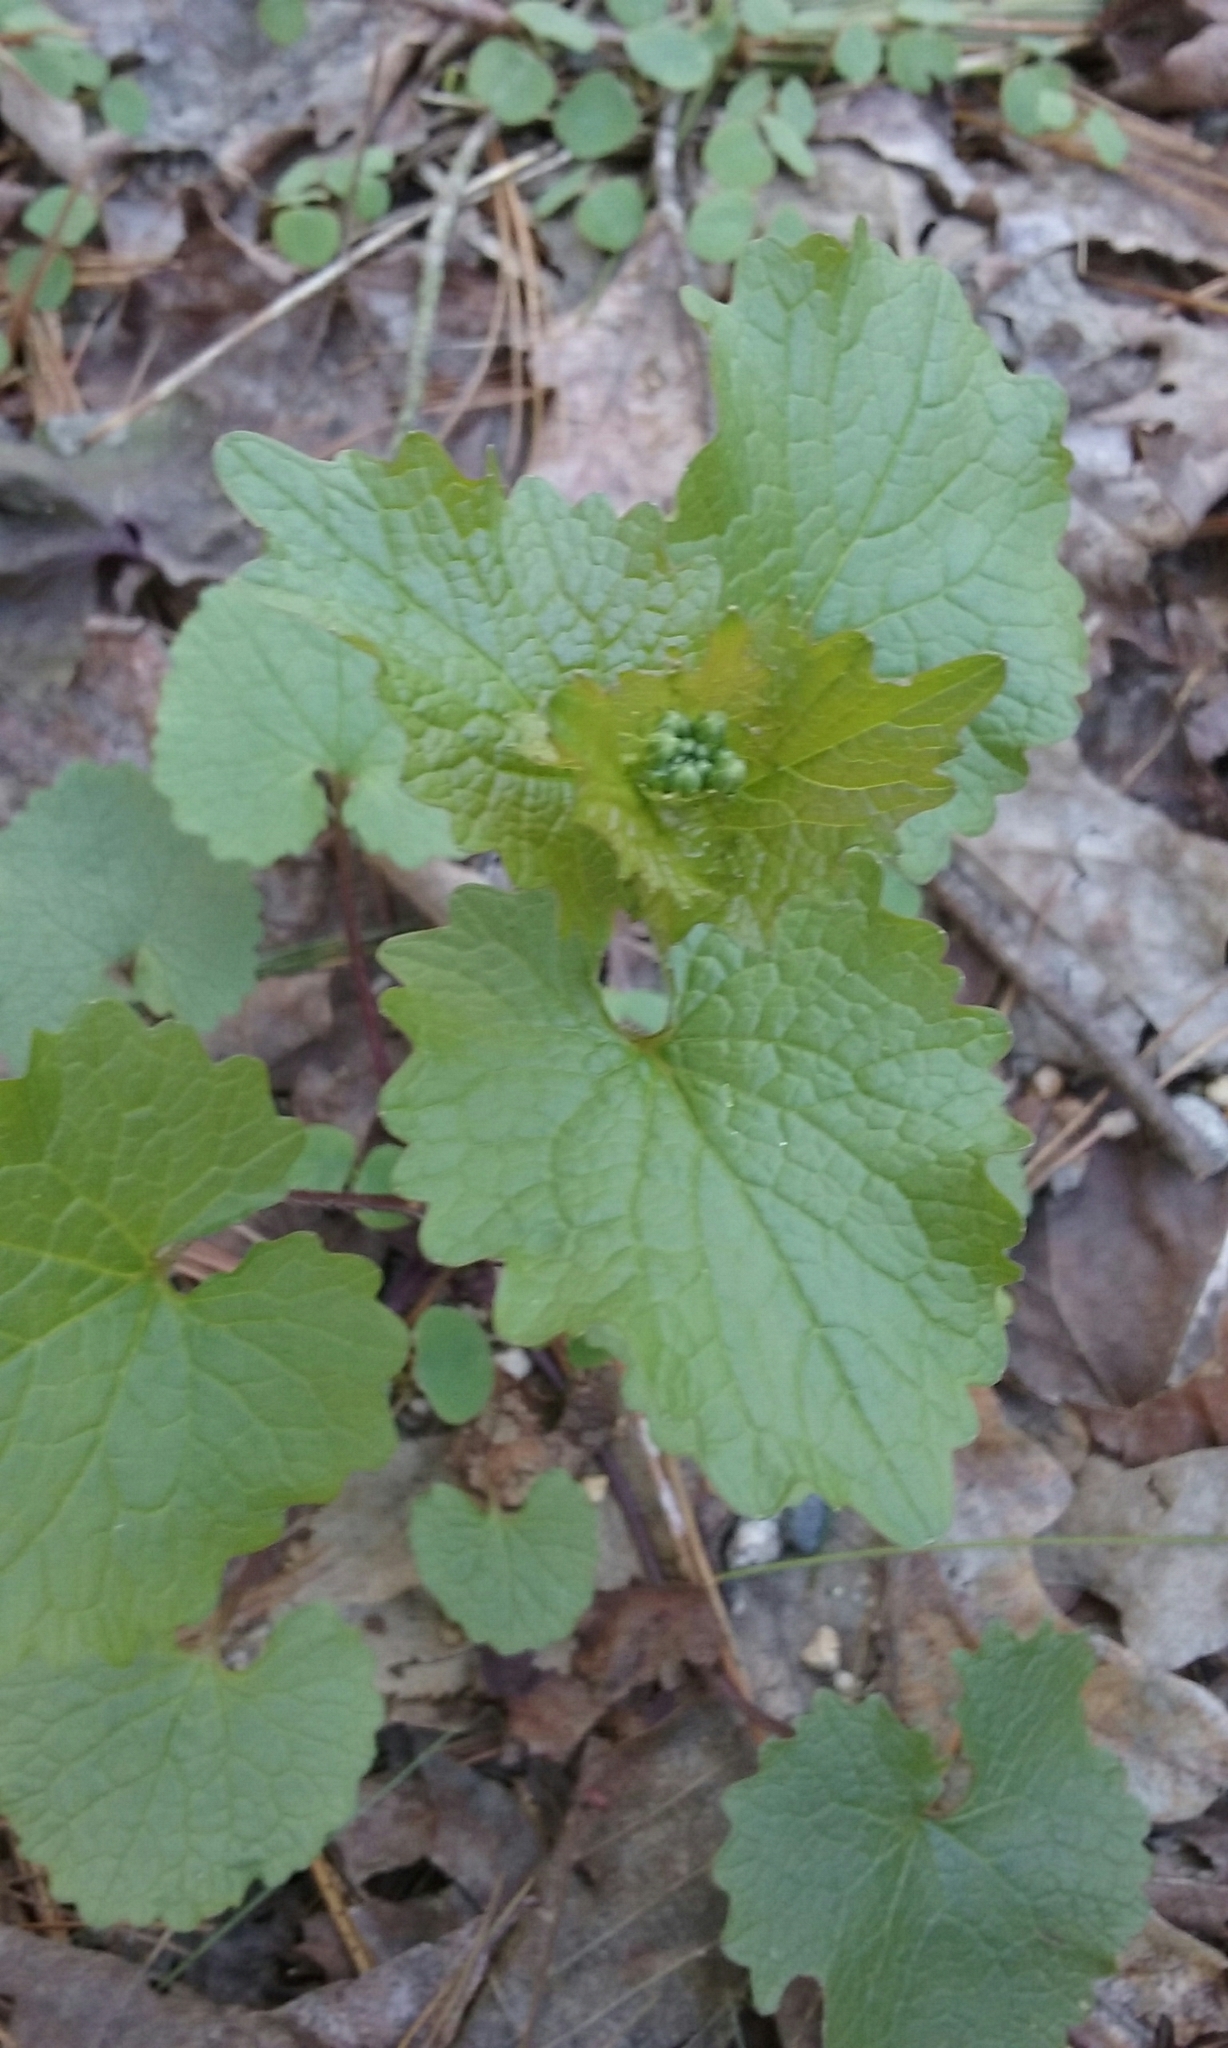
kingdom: Plantae
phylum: Tracheophyta
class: Magnoliopsida
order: Brassicales
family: Brassicaceae
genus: Alliaria
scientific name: Alliaria petiolata
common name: Garlic mustard
